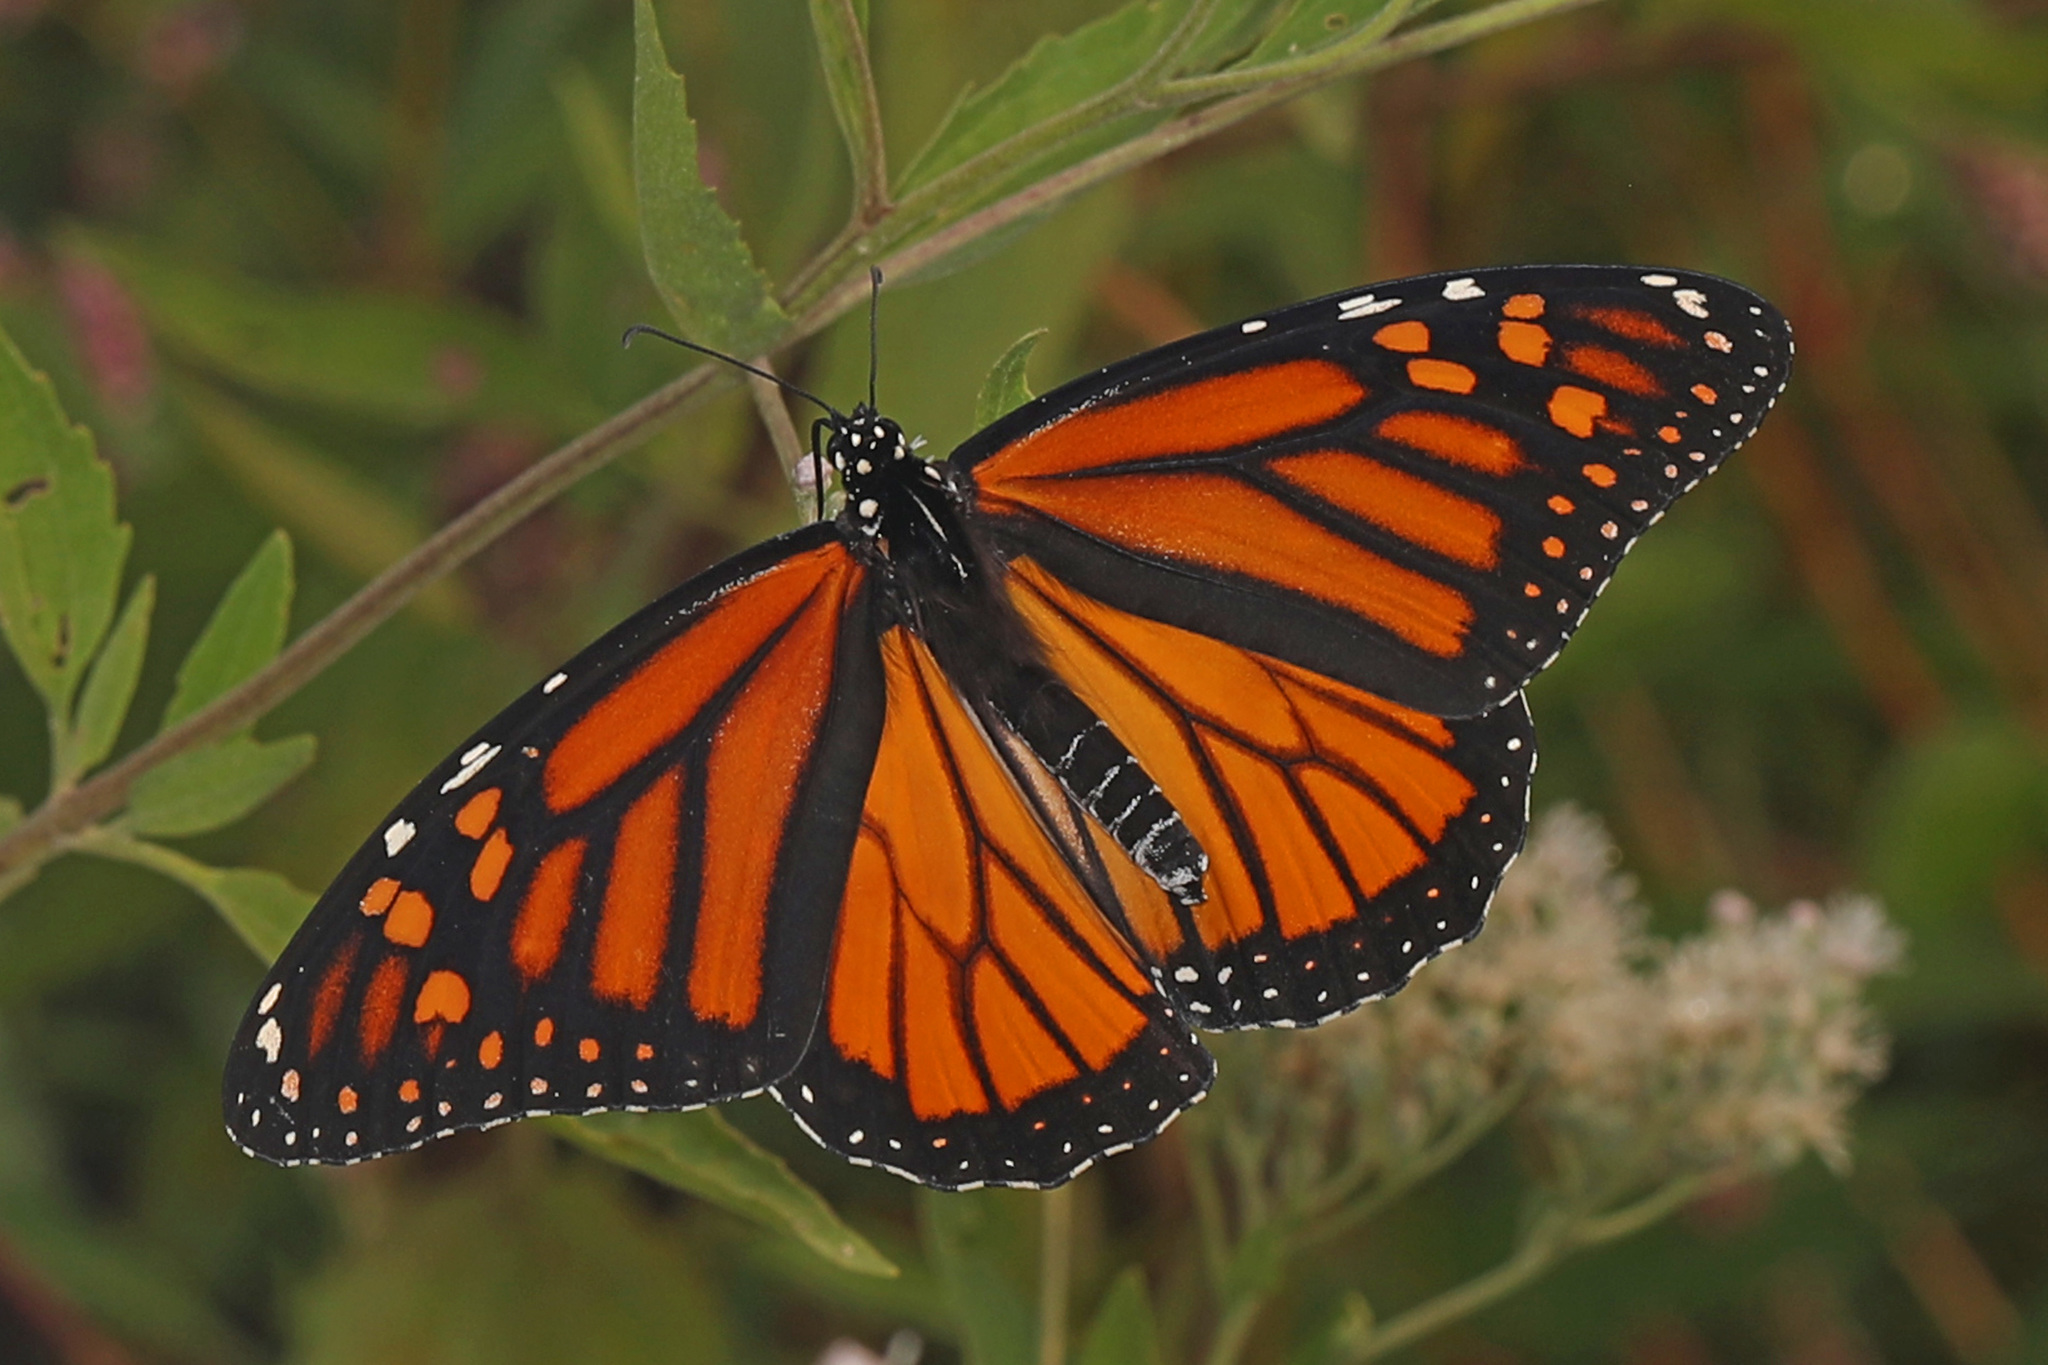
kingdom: Animalia
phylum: Arthropoda
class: Insecta
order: Lepidoptera
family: Nymphalidae
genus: Danaus
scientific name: Danaus plexippus
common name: Monarch
